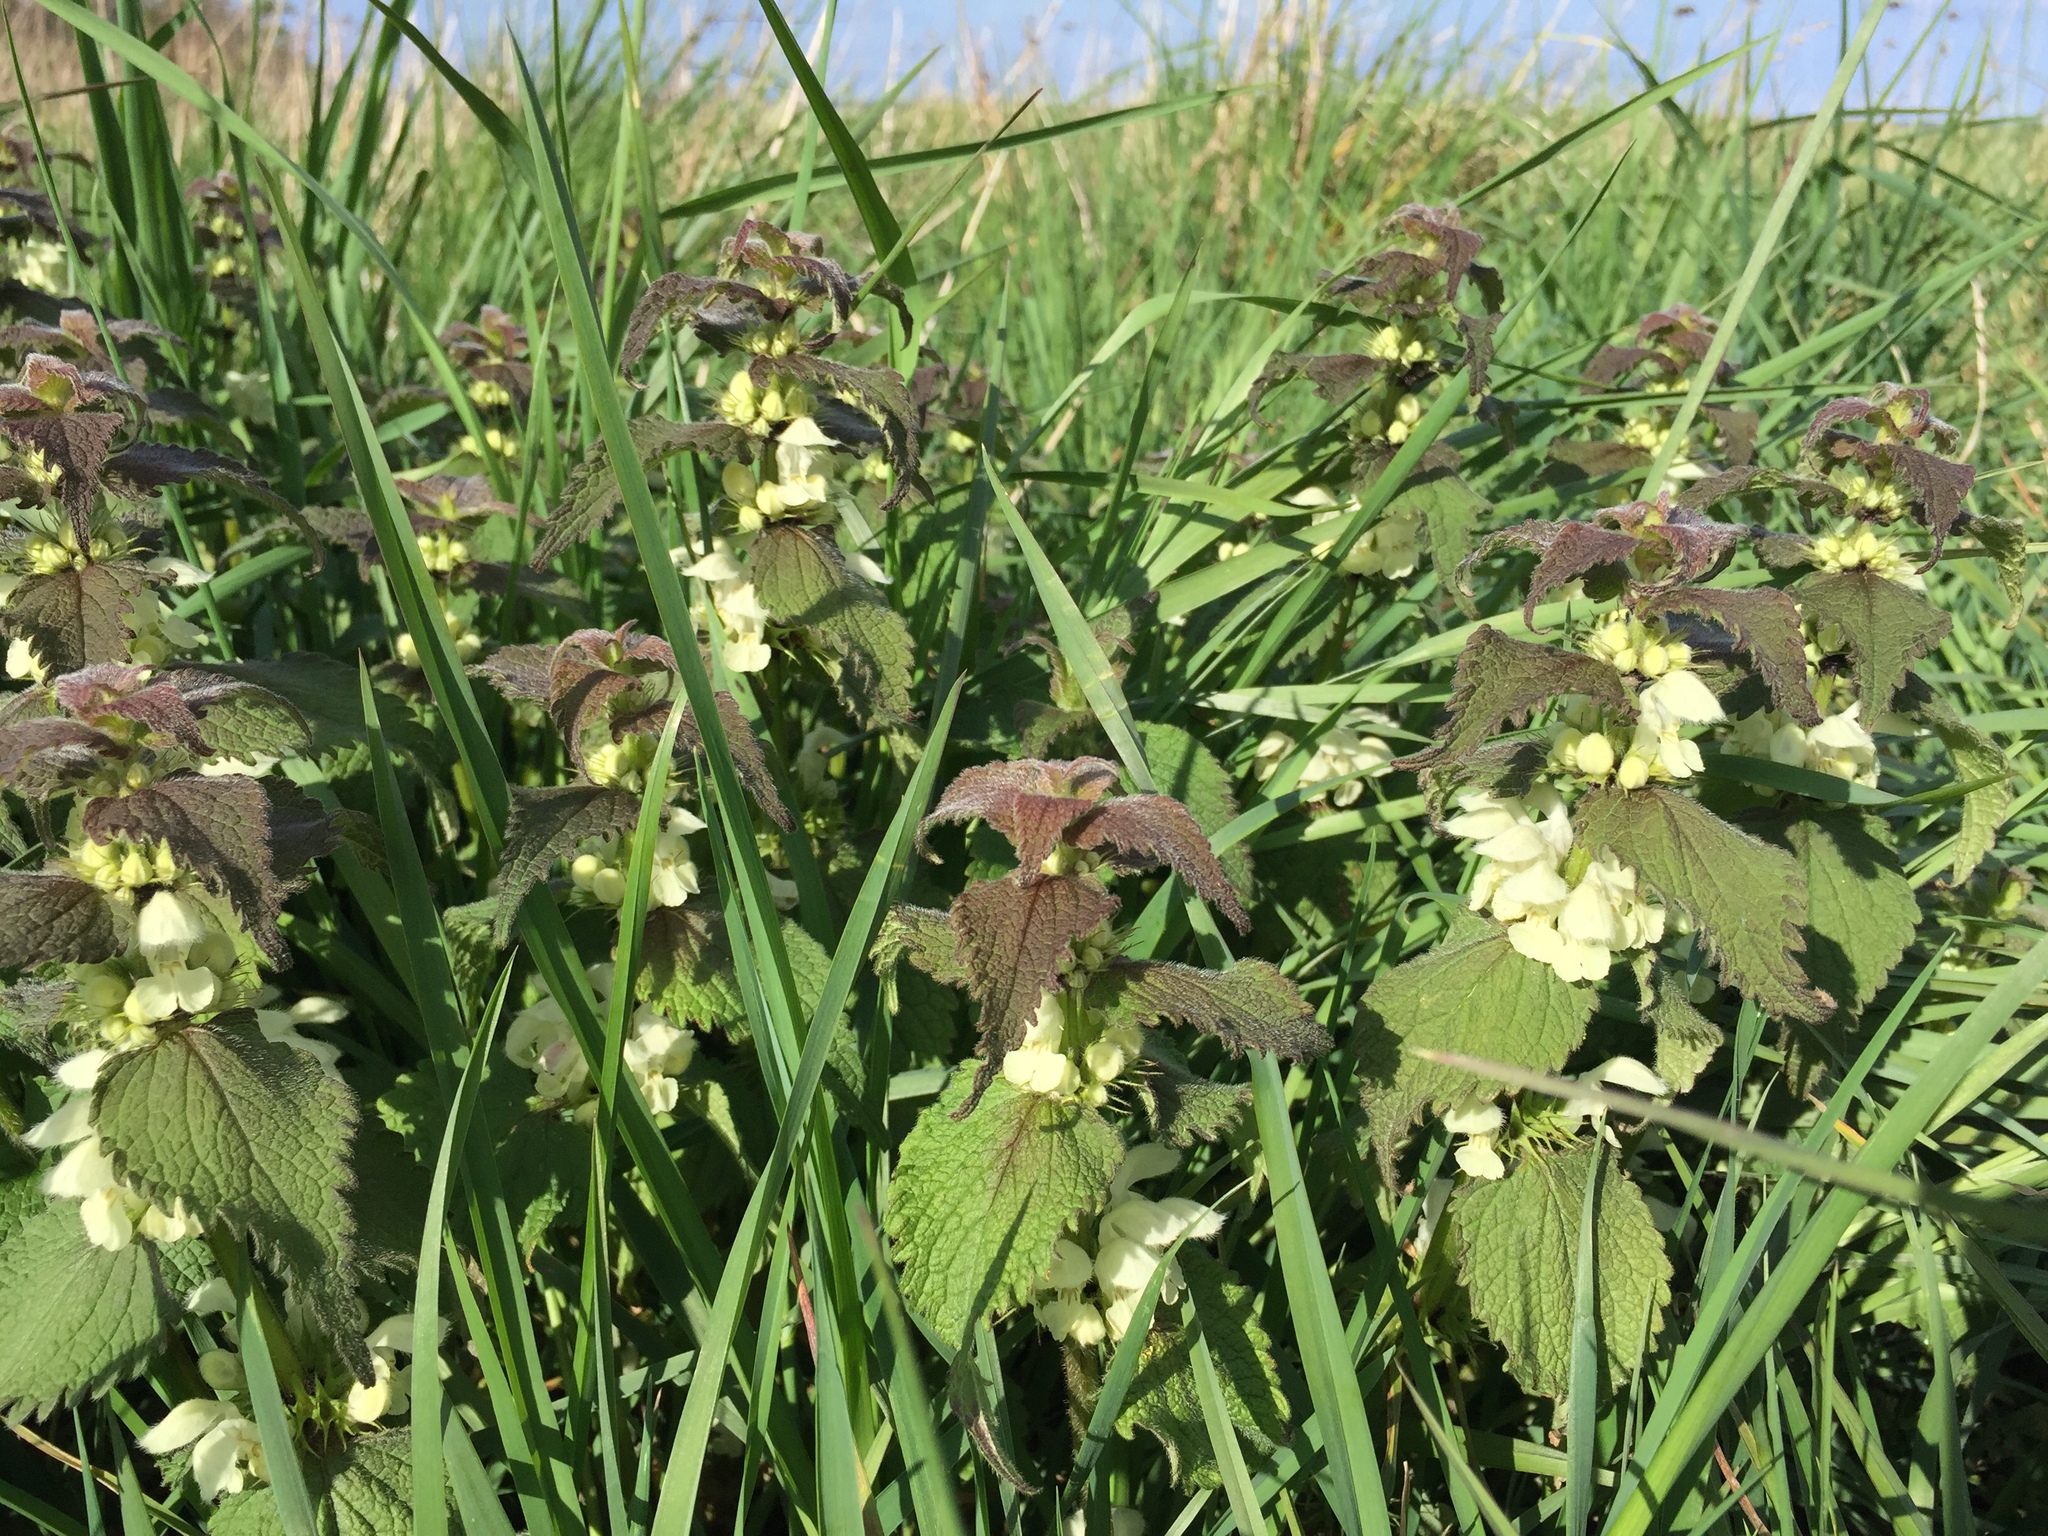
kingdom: Plantae
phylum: Tracheophyta
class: Magnoliopsida
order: Lamiales
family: Lamiaceae
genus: Lamium
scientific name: Lamium album
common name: White dead-nettle
